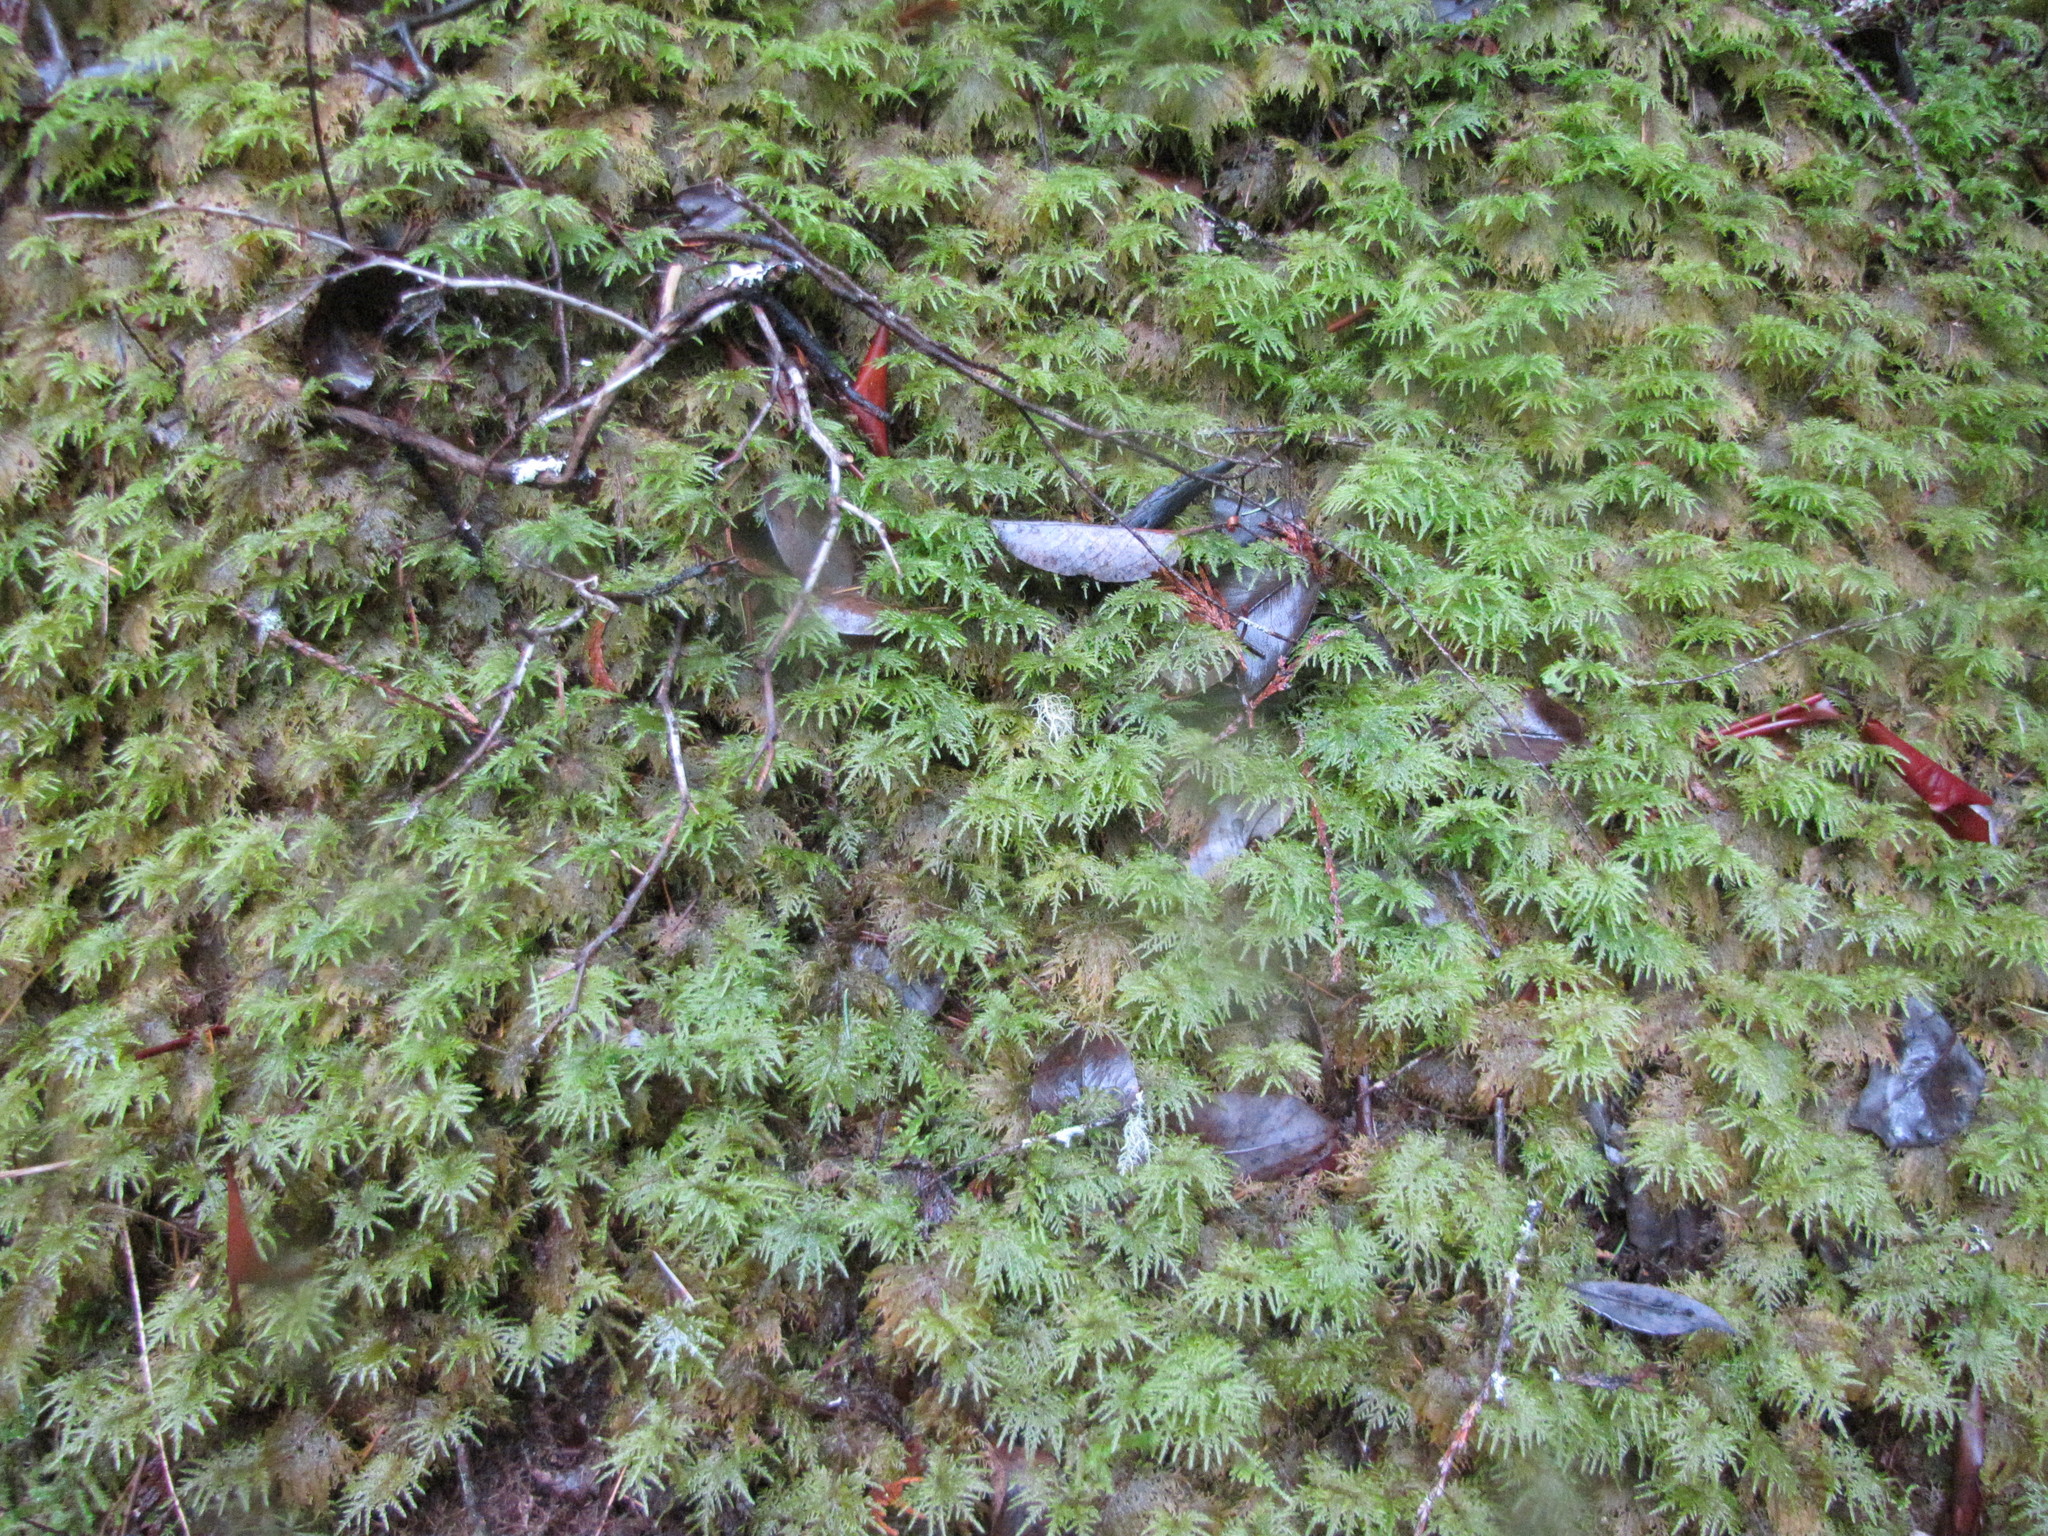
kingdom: Plantae
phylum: Bryophyta
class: Bryopsida
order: Hypnales
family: Hylocomiaceae
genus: Hylocomium
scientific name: Hylocomium splendens
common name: Stairstep moss
